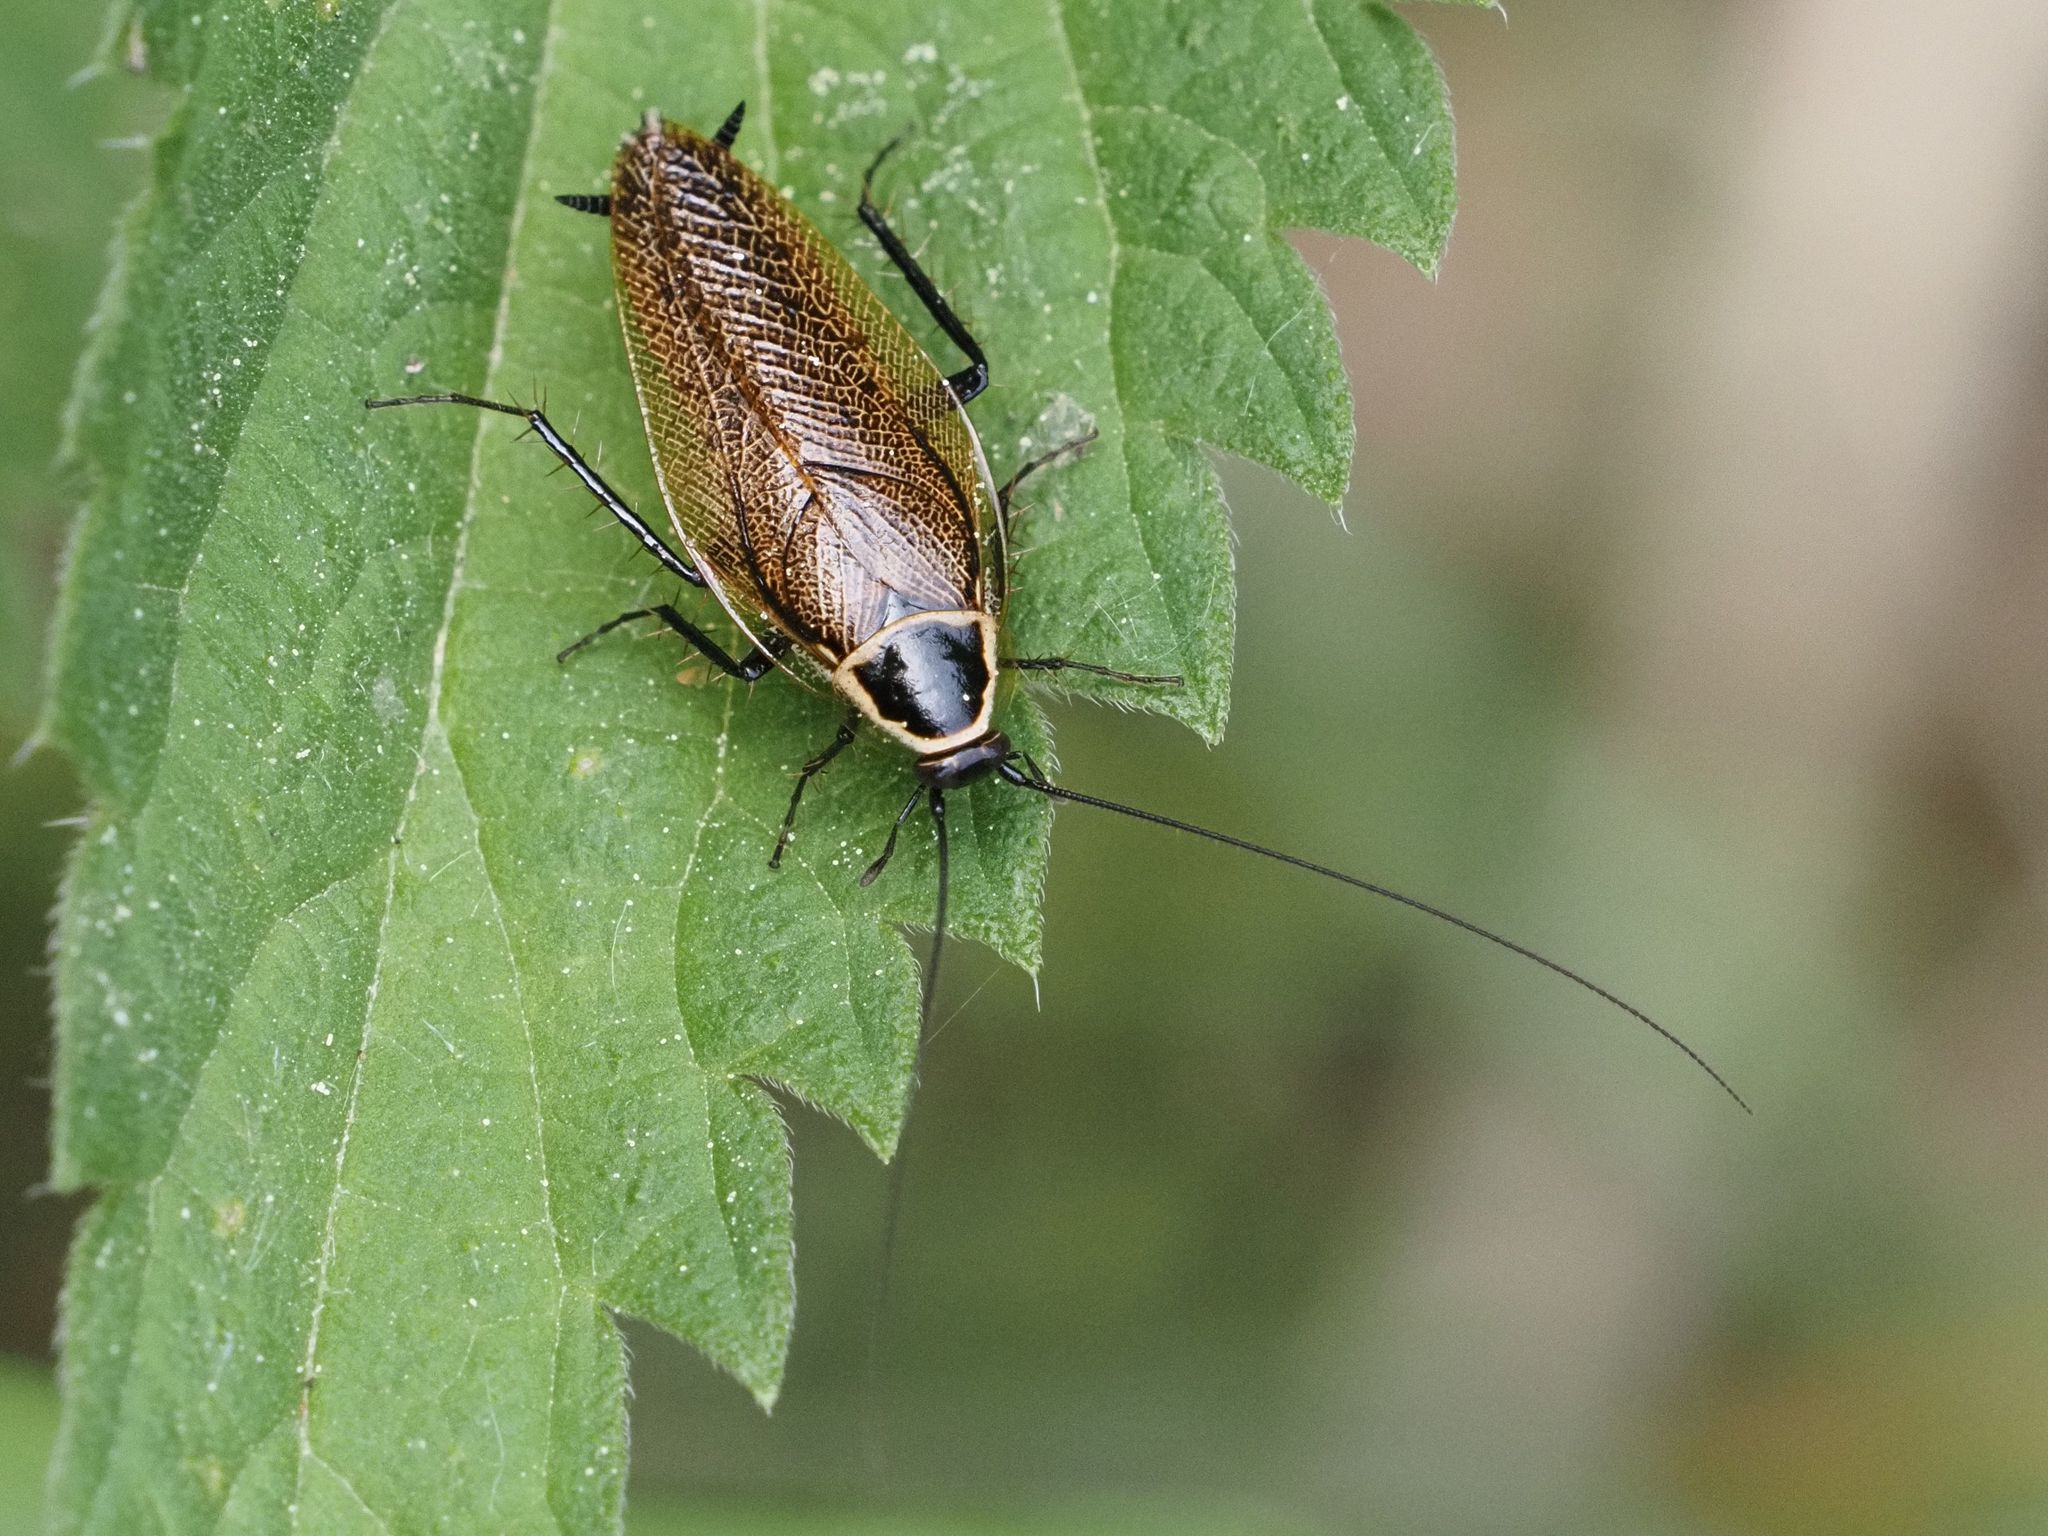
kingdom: Animalia
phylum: Arthropoda
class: Insecta
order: Blattodea
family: Ectobiidae
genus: Ectobius
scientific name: Ectobius sylvestris
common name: Forest cockroach
